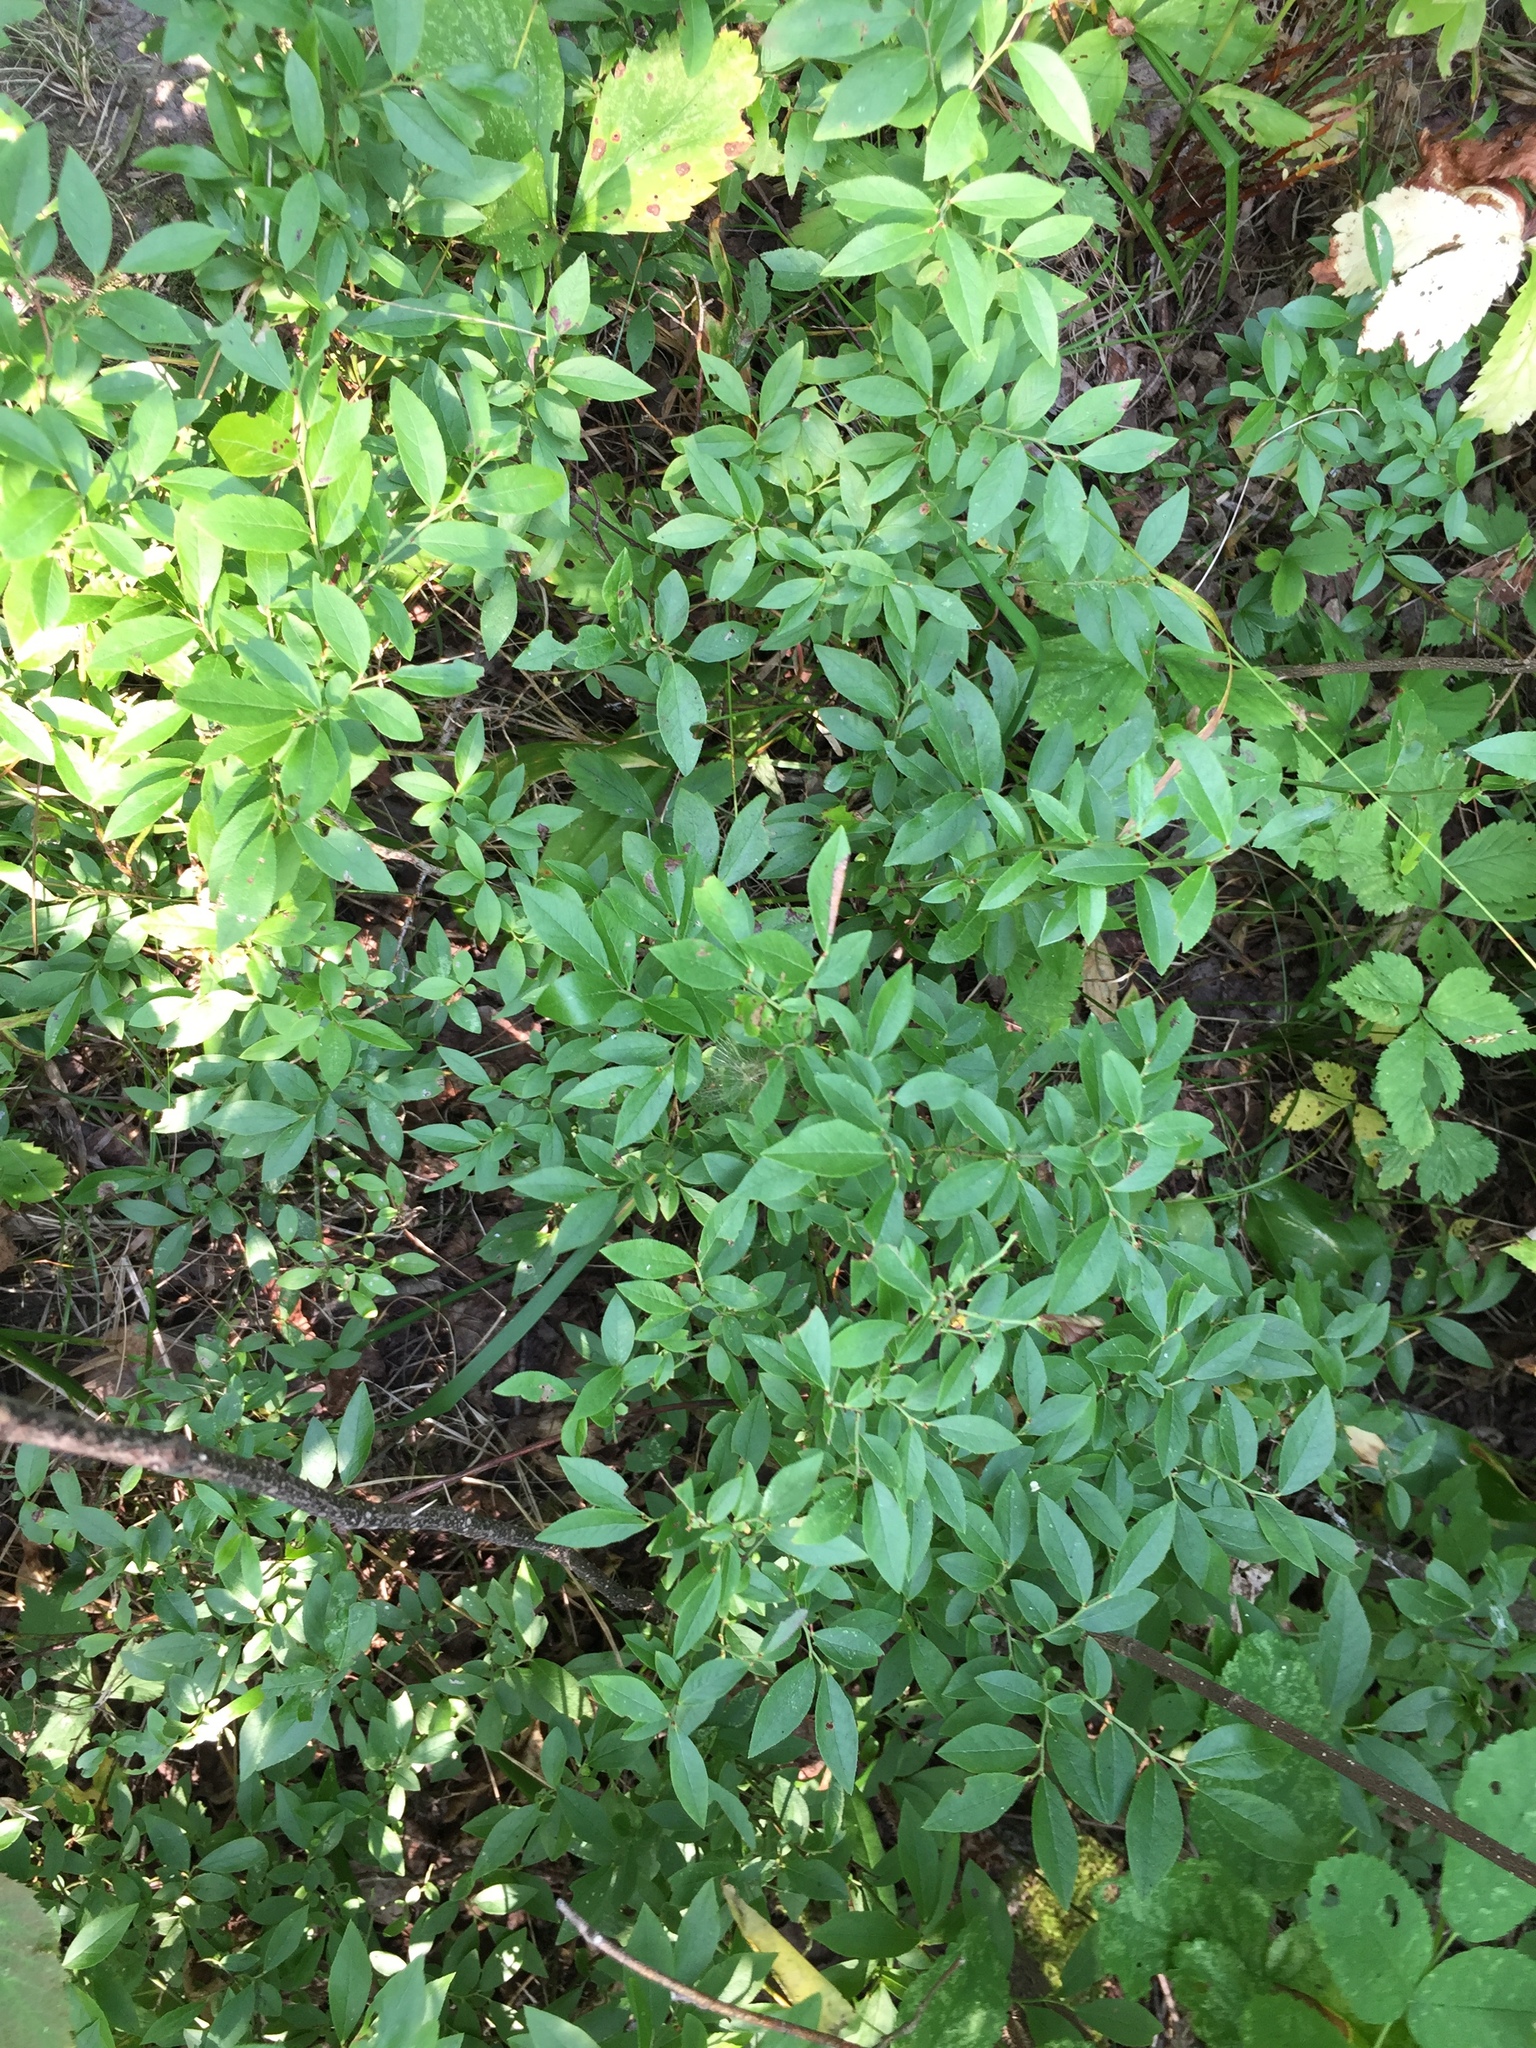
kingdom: Plantae
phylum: Tracheophyta
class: Magnoliopsida
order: Ericales
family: Ericaceae
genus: Vaccinium
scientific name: Vaccinium angustifolium
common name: Early lowbush blueberry
